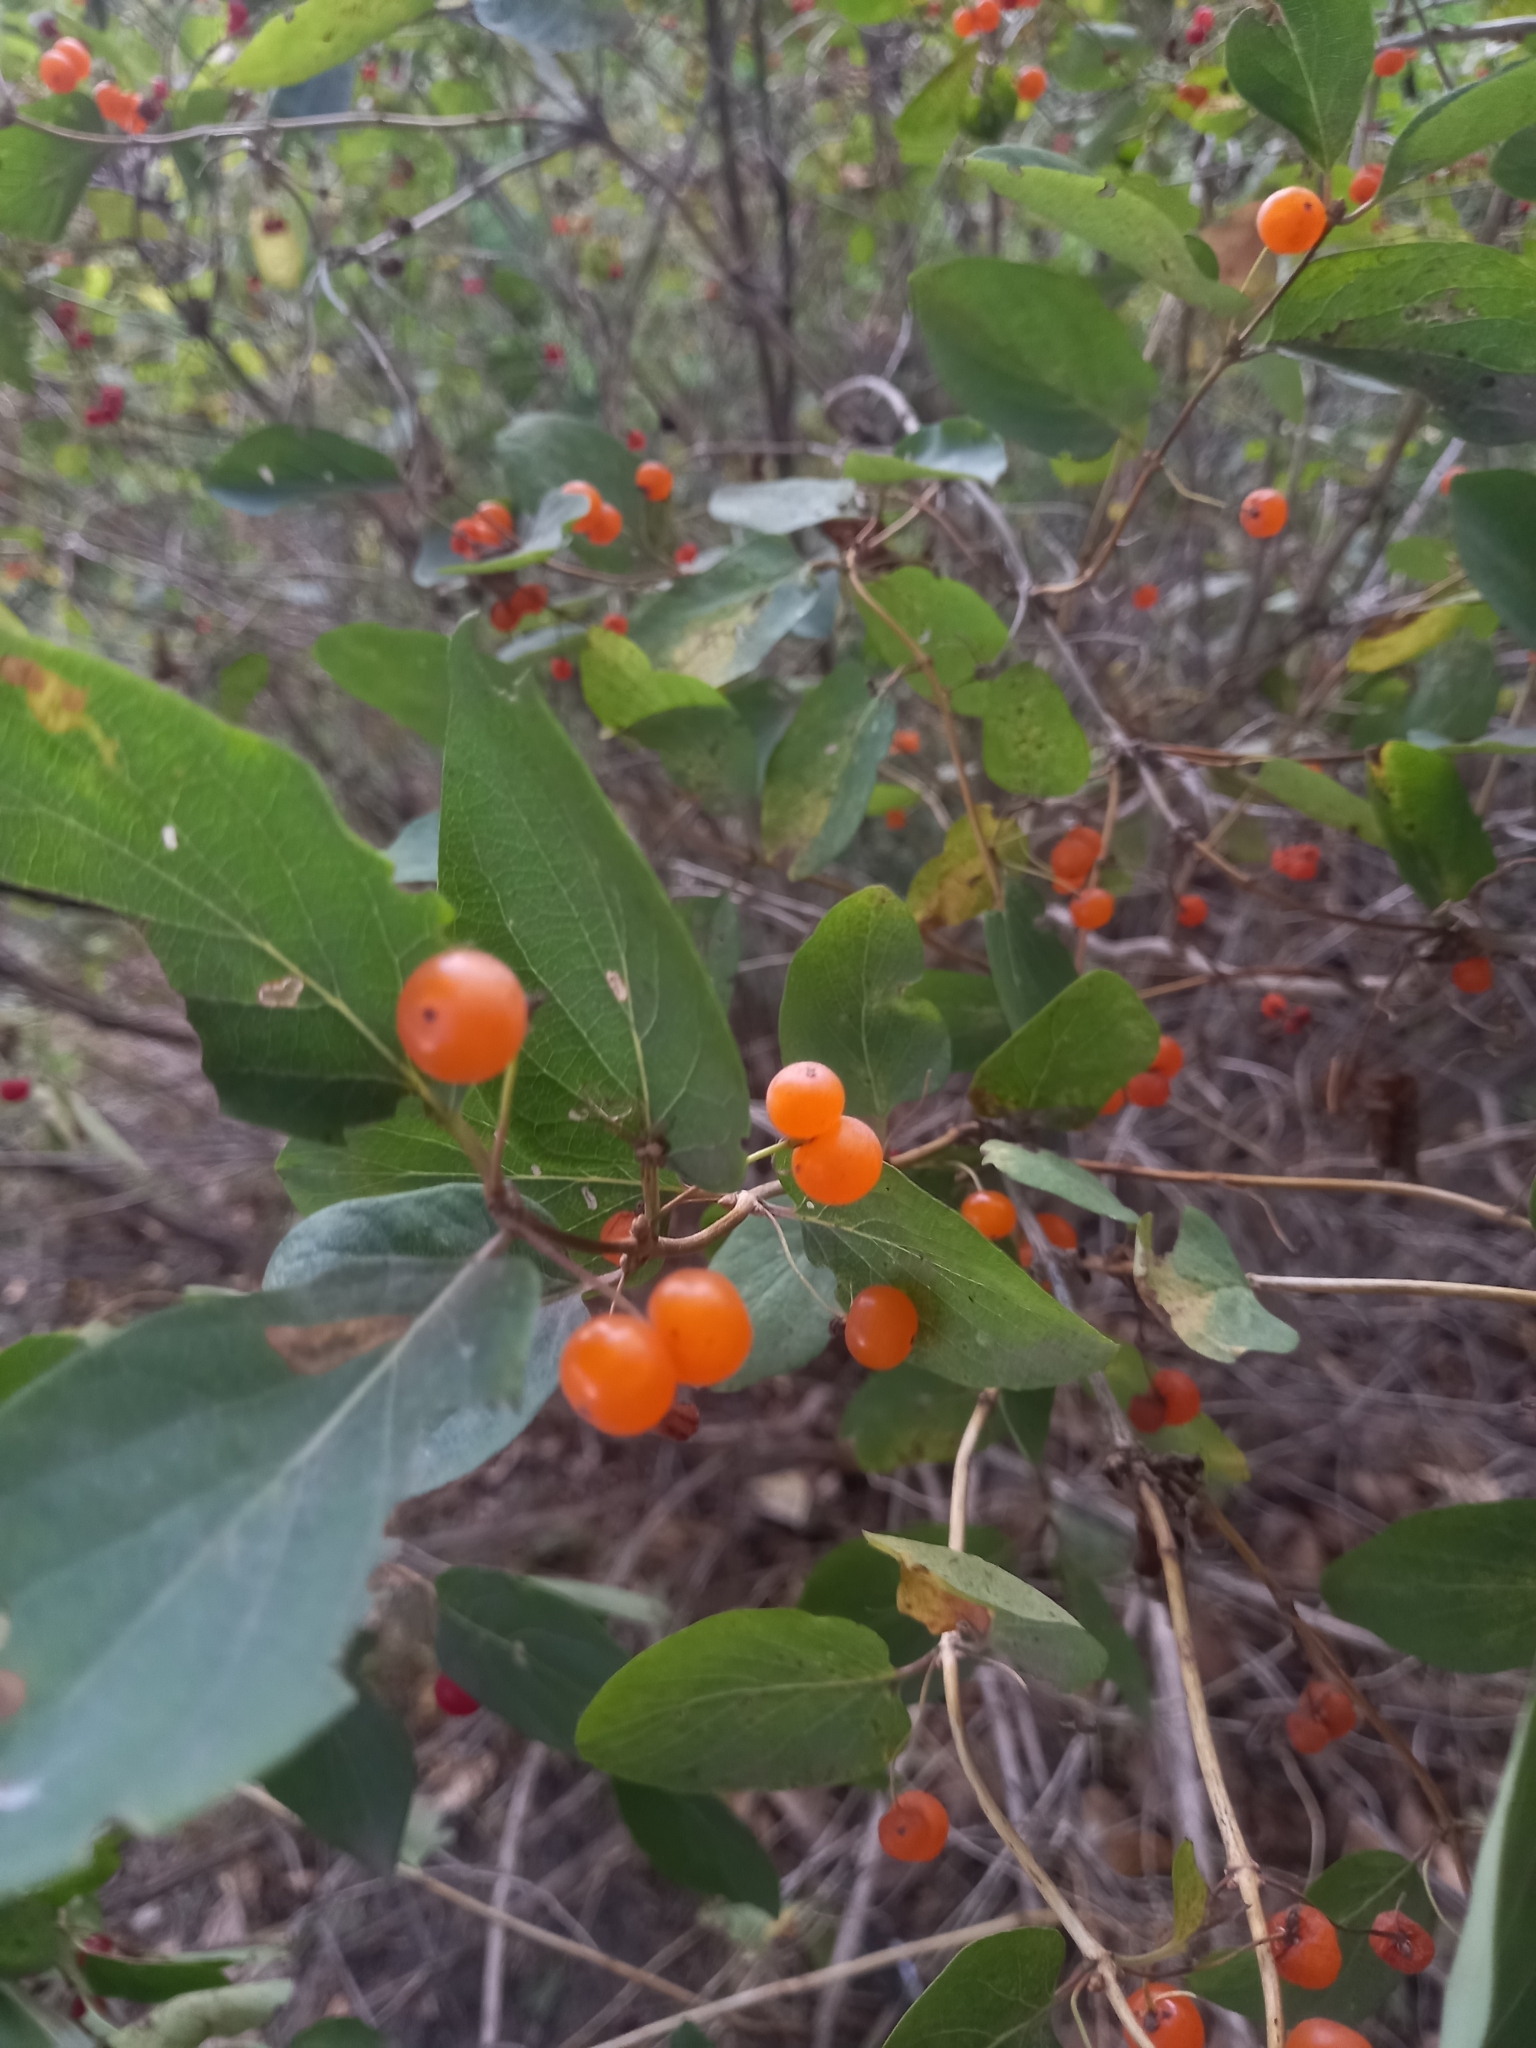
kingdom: Plantae
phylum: Tracheophyta
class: Magnoliopsida
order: Dipsacales
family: Caprifoliaceae
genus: Lonicera
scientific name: Lonicera tatarica
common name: Tatarian honeysuckle
